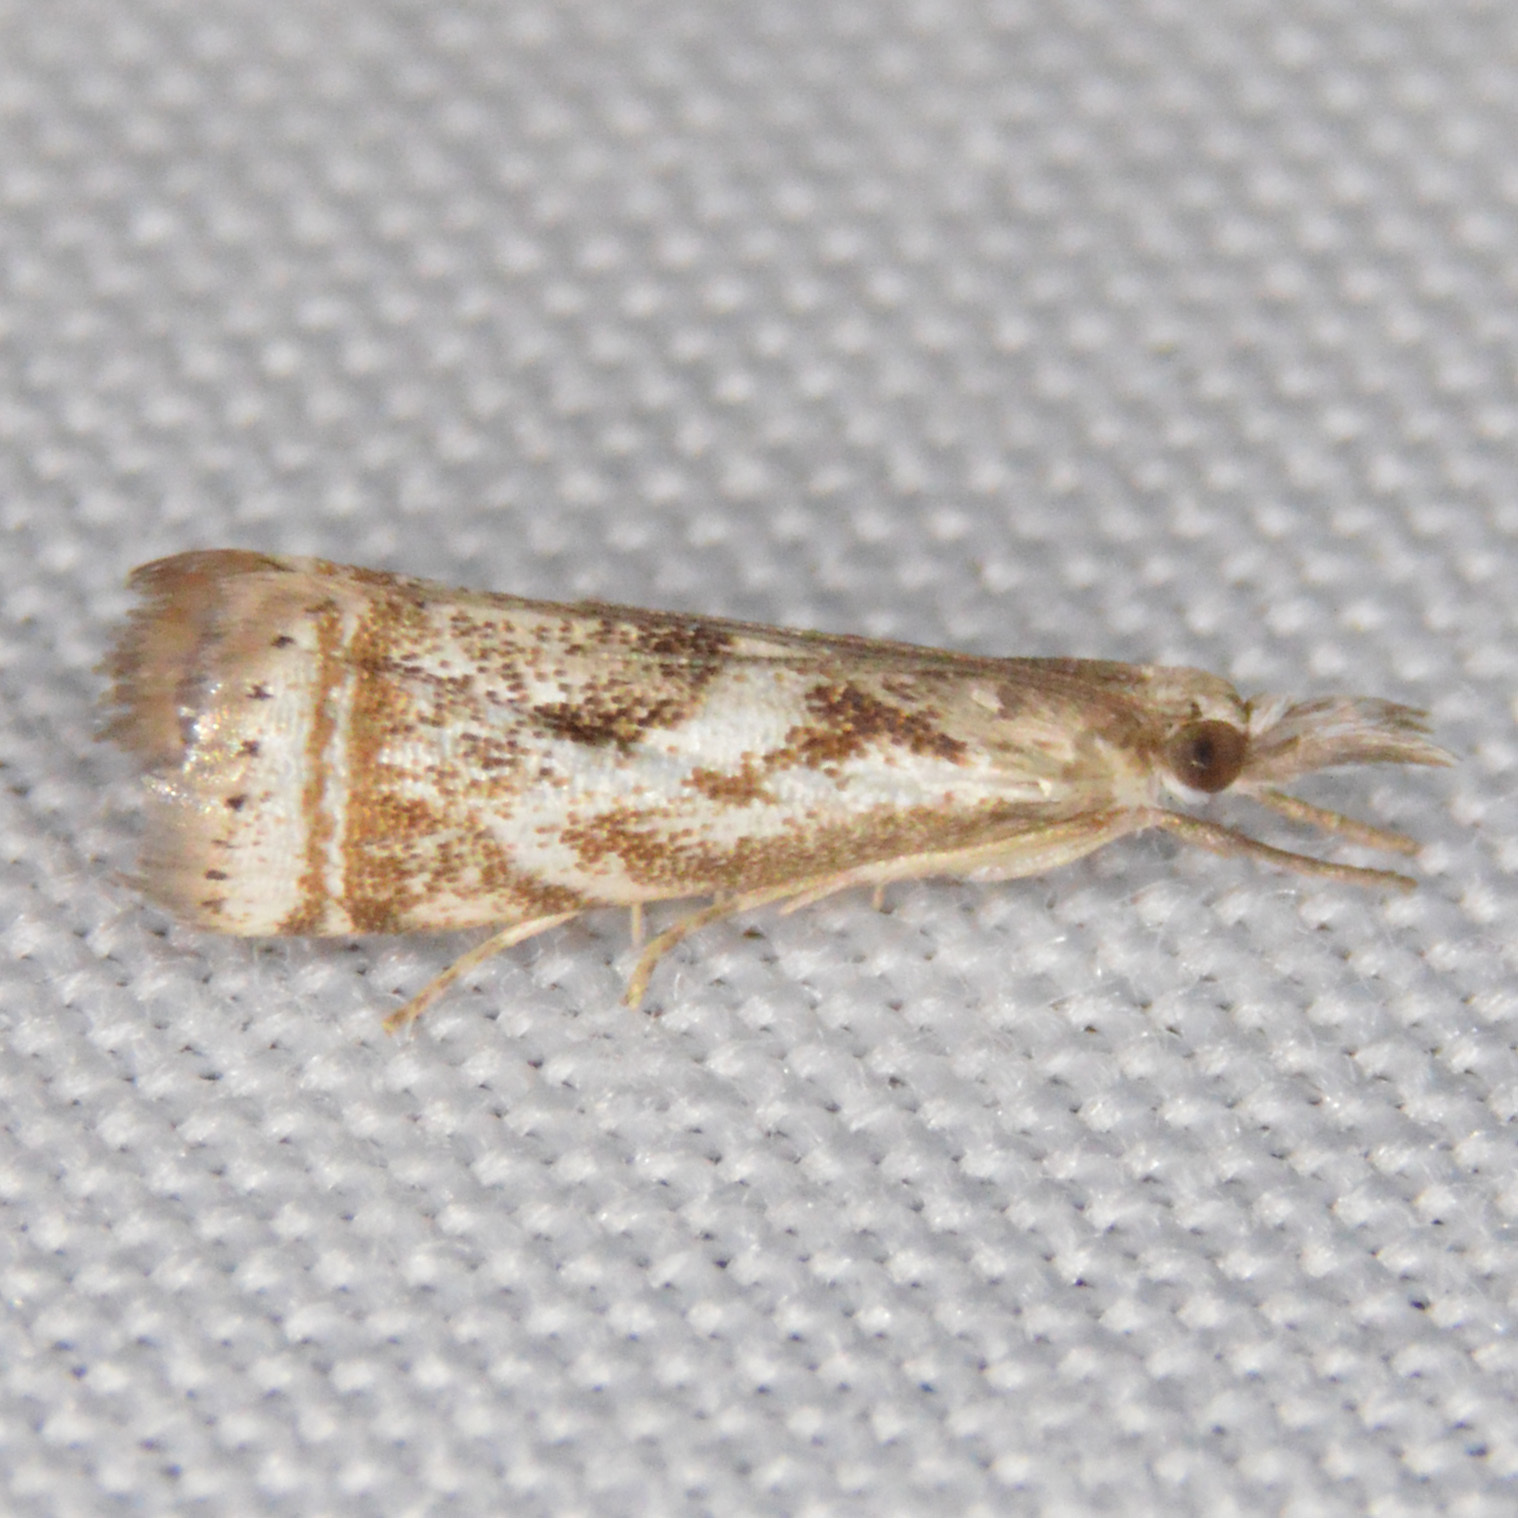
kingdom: Animalia
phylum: Arthropoda
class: Insecta
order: Lepidoptera
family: Crambidae
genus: Microcrambus
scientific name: Microcrambus elegans
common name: Elegant grass-veneer
